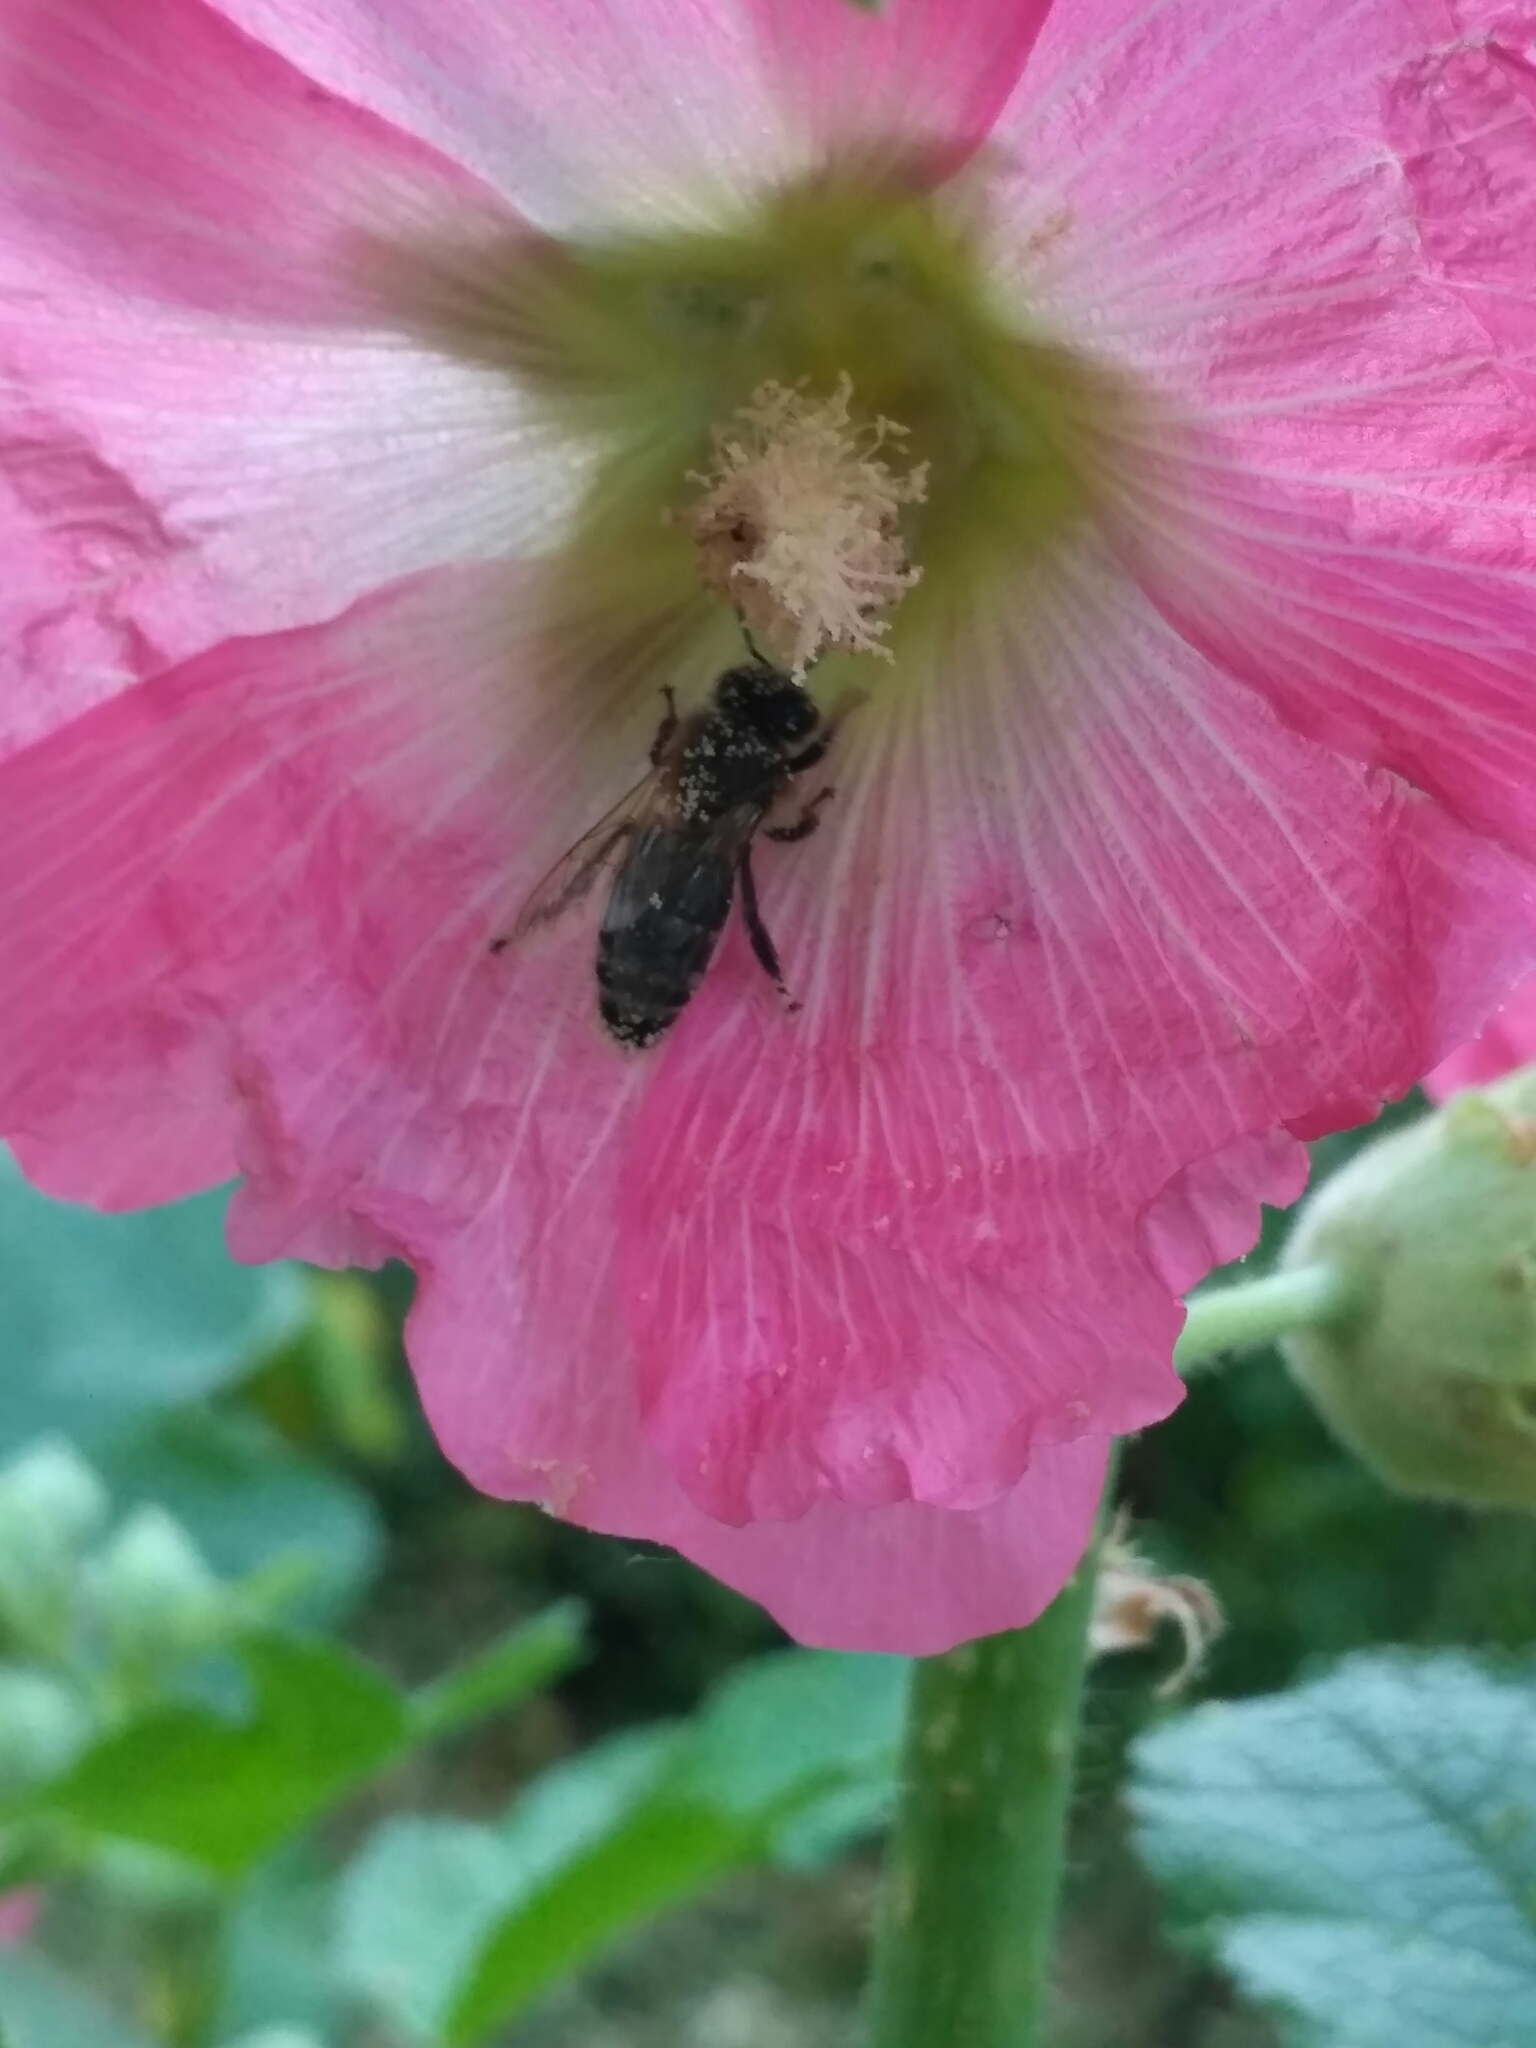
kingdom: Animalia
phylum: Arthropoda
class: Insecta
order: Hymenoptera
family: Apidae
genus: Apis
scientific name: Apis mellifera
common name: Honey bee
